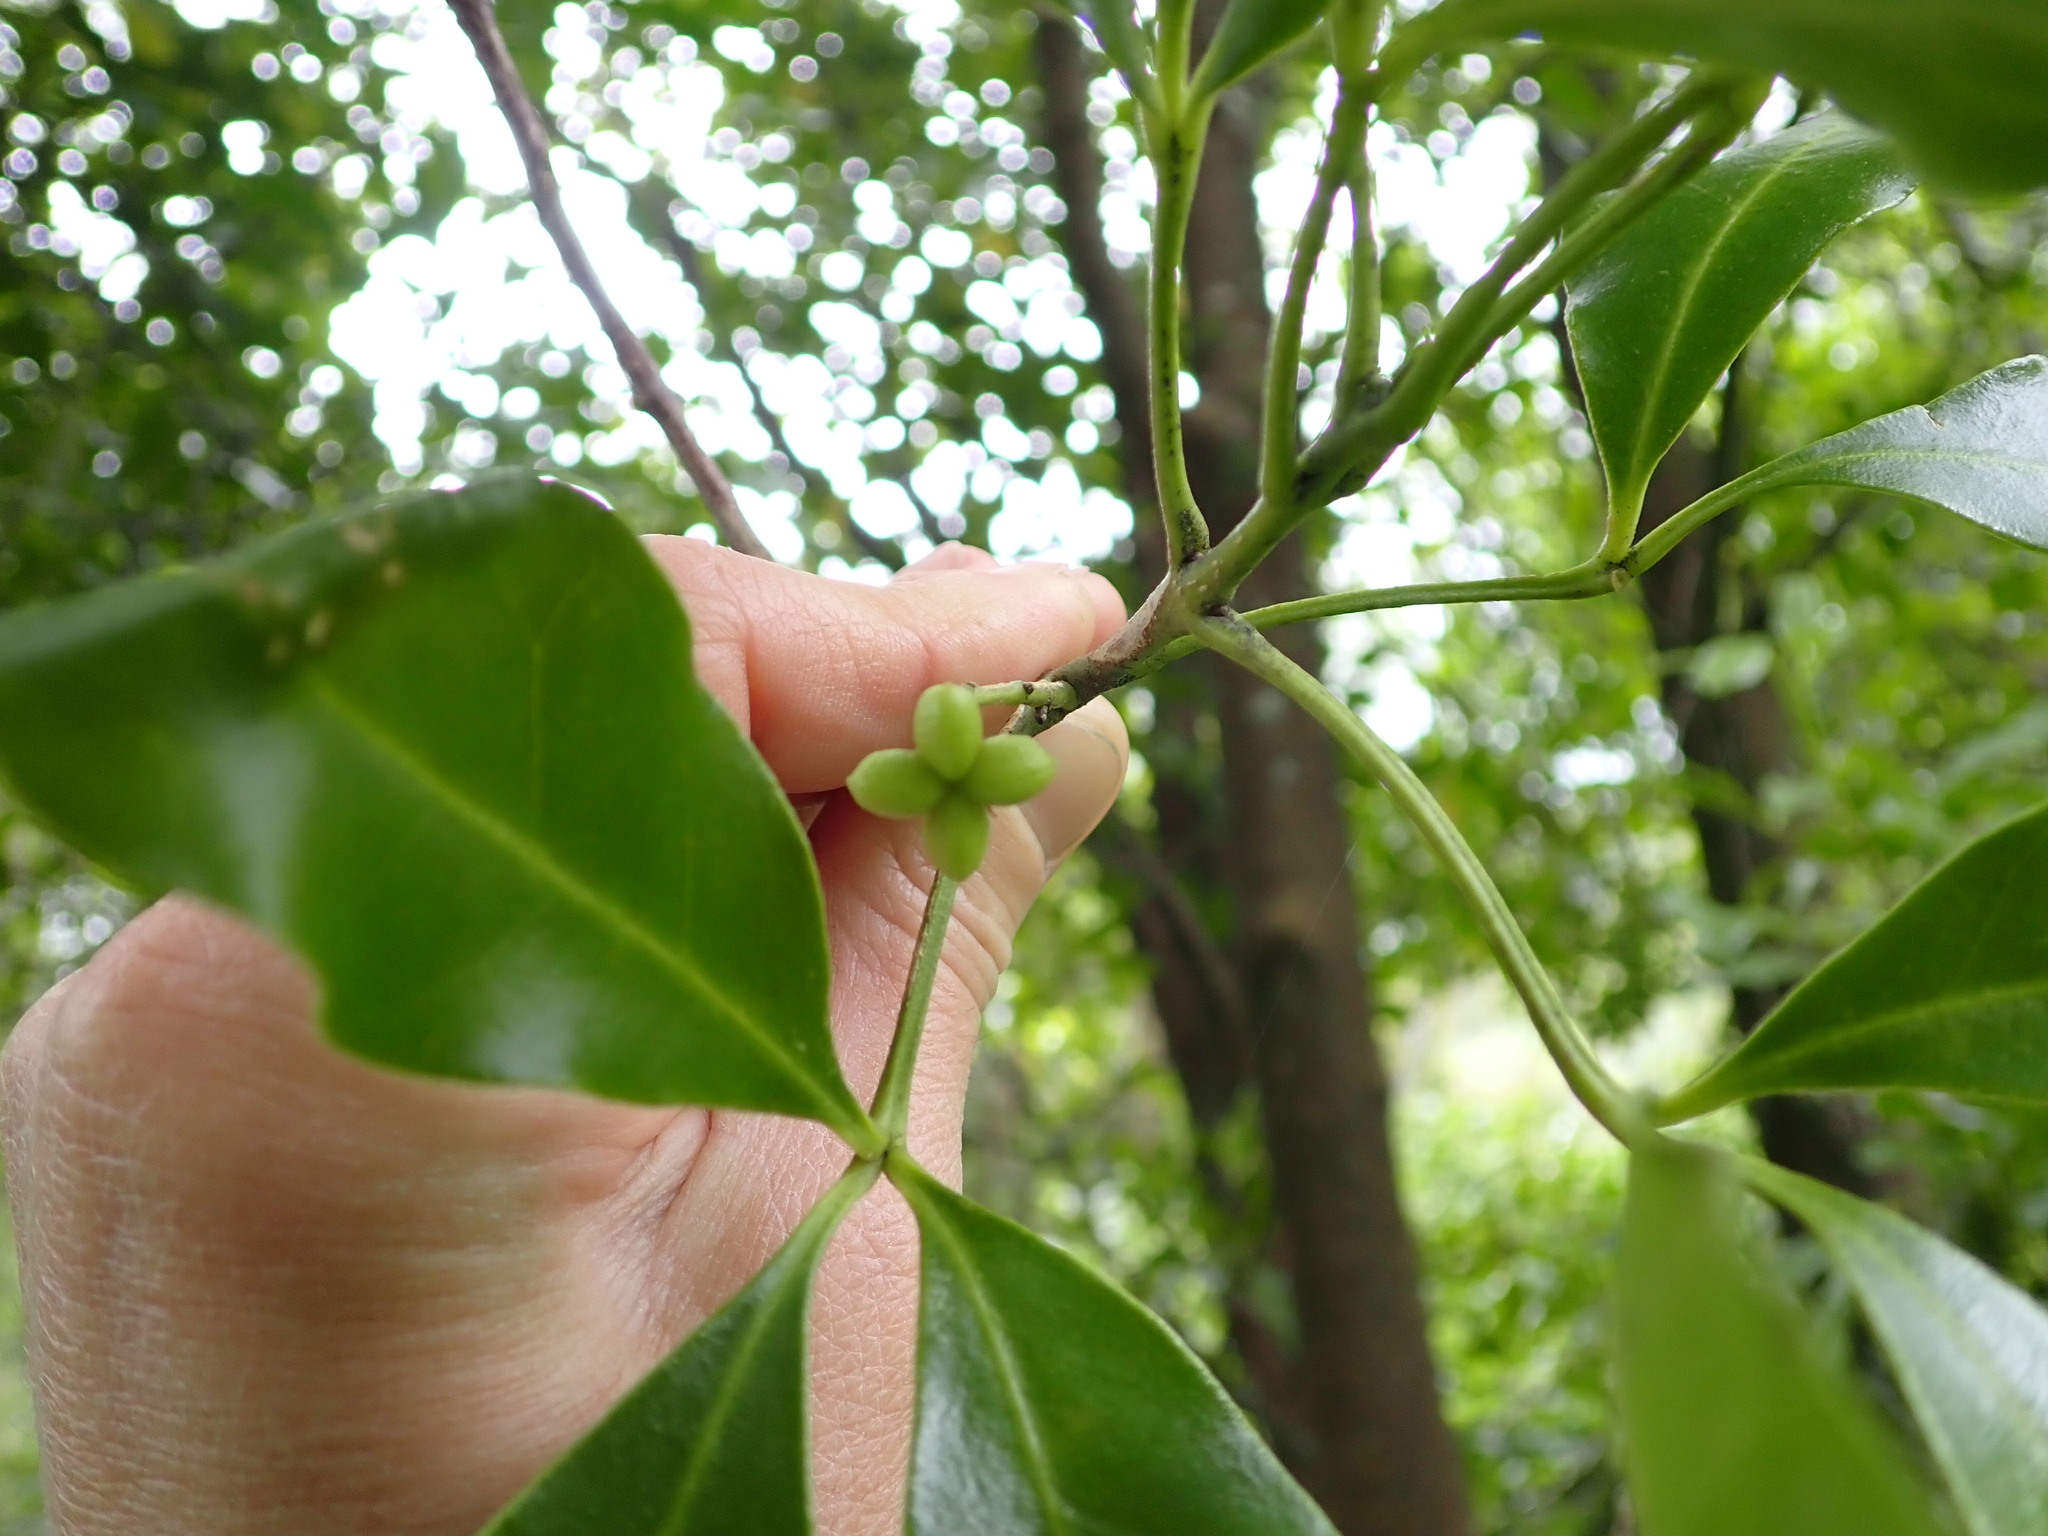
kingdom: Plantae
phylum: Tracheophyta
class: Magnoliopsida
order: Sapindales
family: Rutaceae
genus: Melicope
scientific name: Melicope ternata
